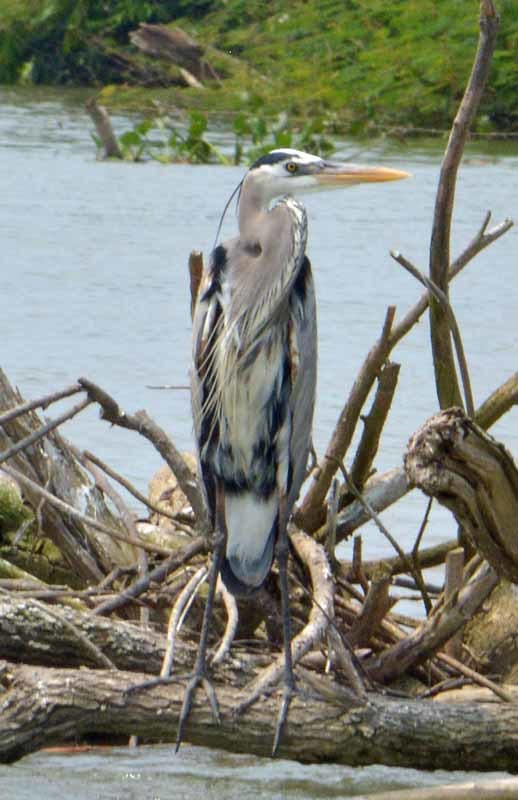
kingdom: Animalia
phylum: Chordata
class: Aves
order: Pelecaniformes
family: Ardeidae
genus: Ardea
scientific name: Ardea herodias
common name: Great blue heron
